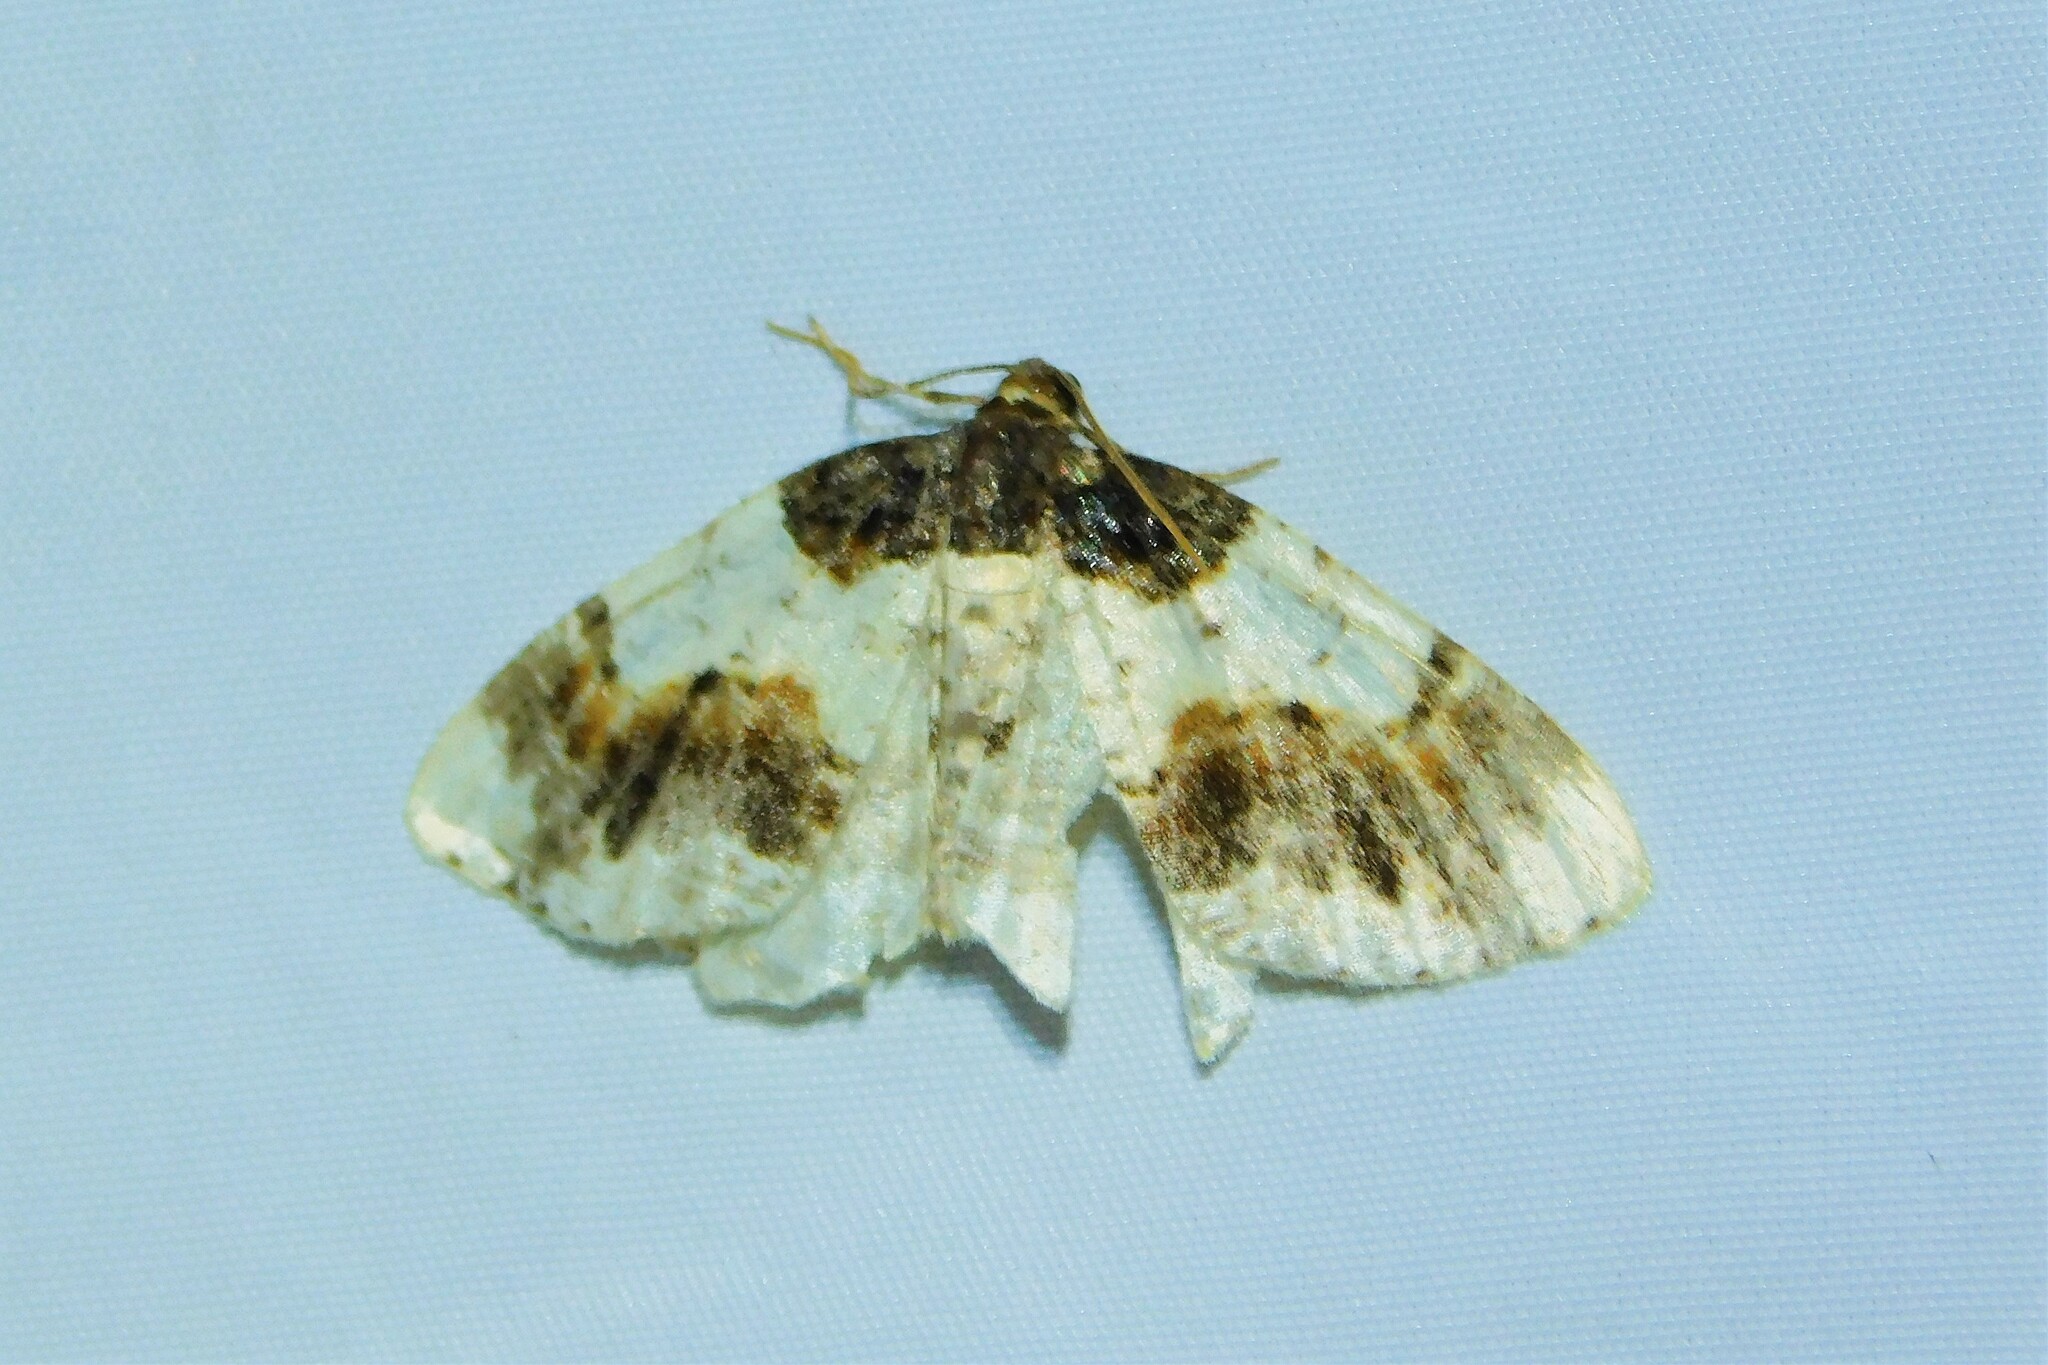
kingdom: Animalia
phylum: Arthropoda
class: Insecta
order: Lepidoptera
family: Geometridae
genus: Ligdia
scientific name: Ligdia adustata
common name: Scorched carpet
